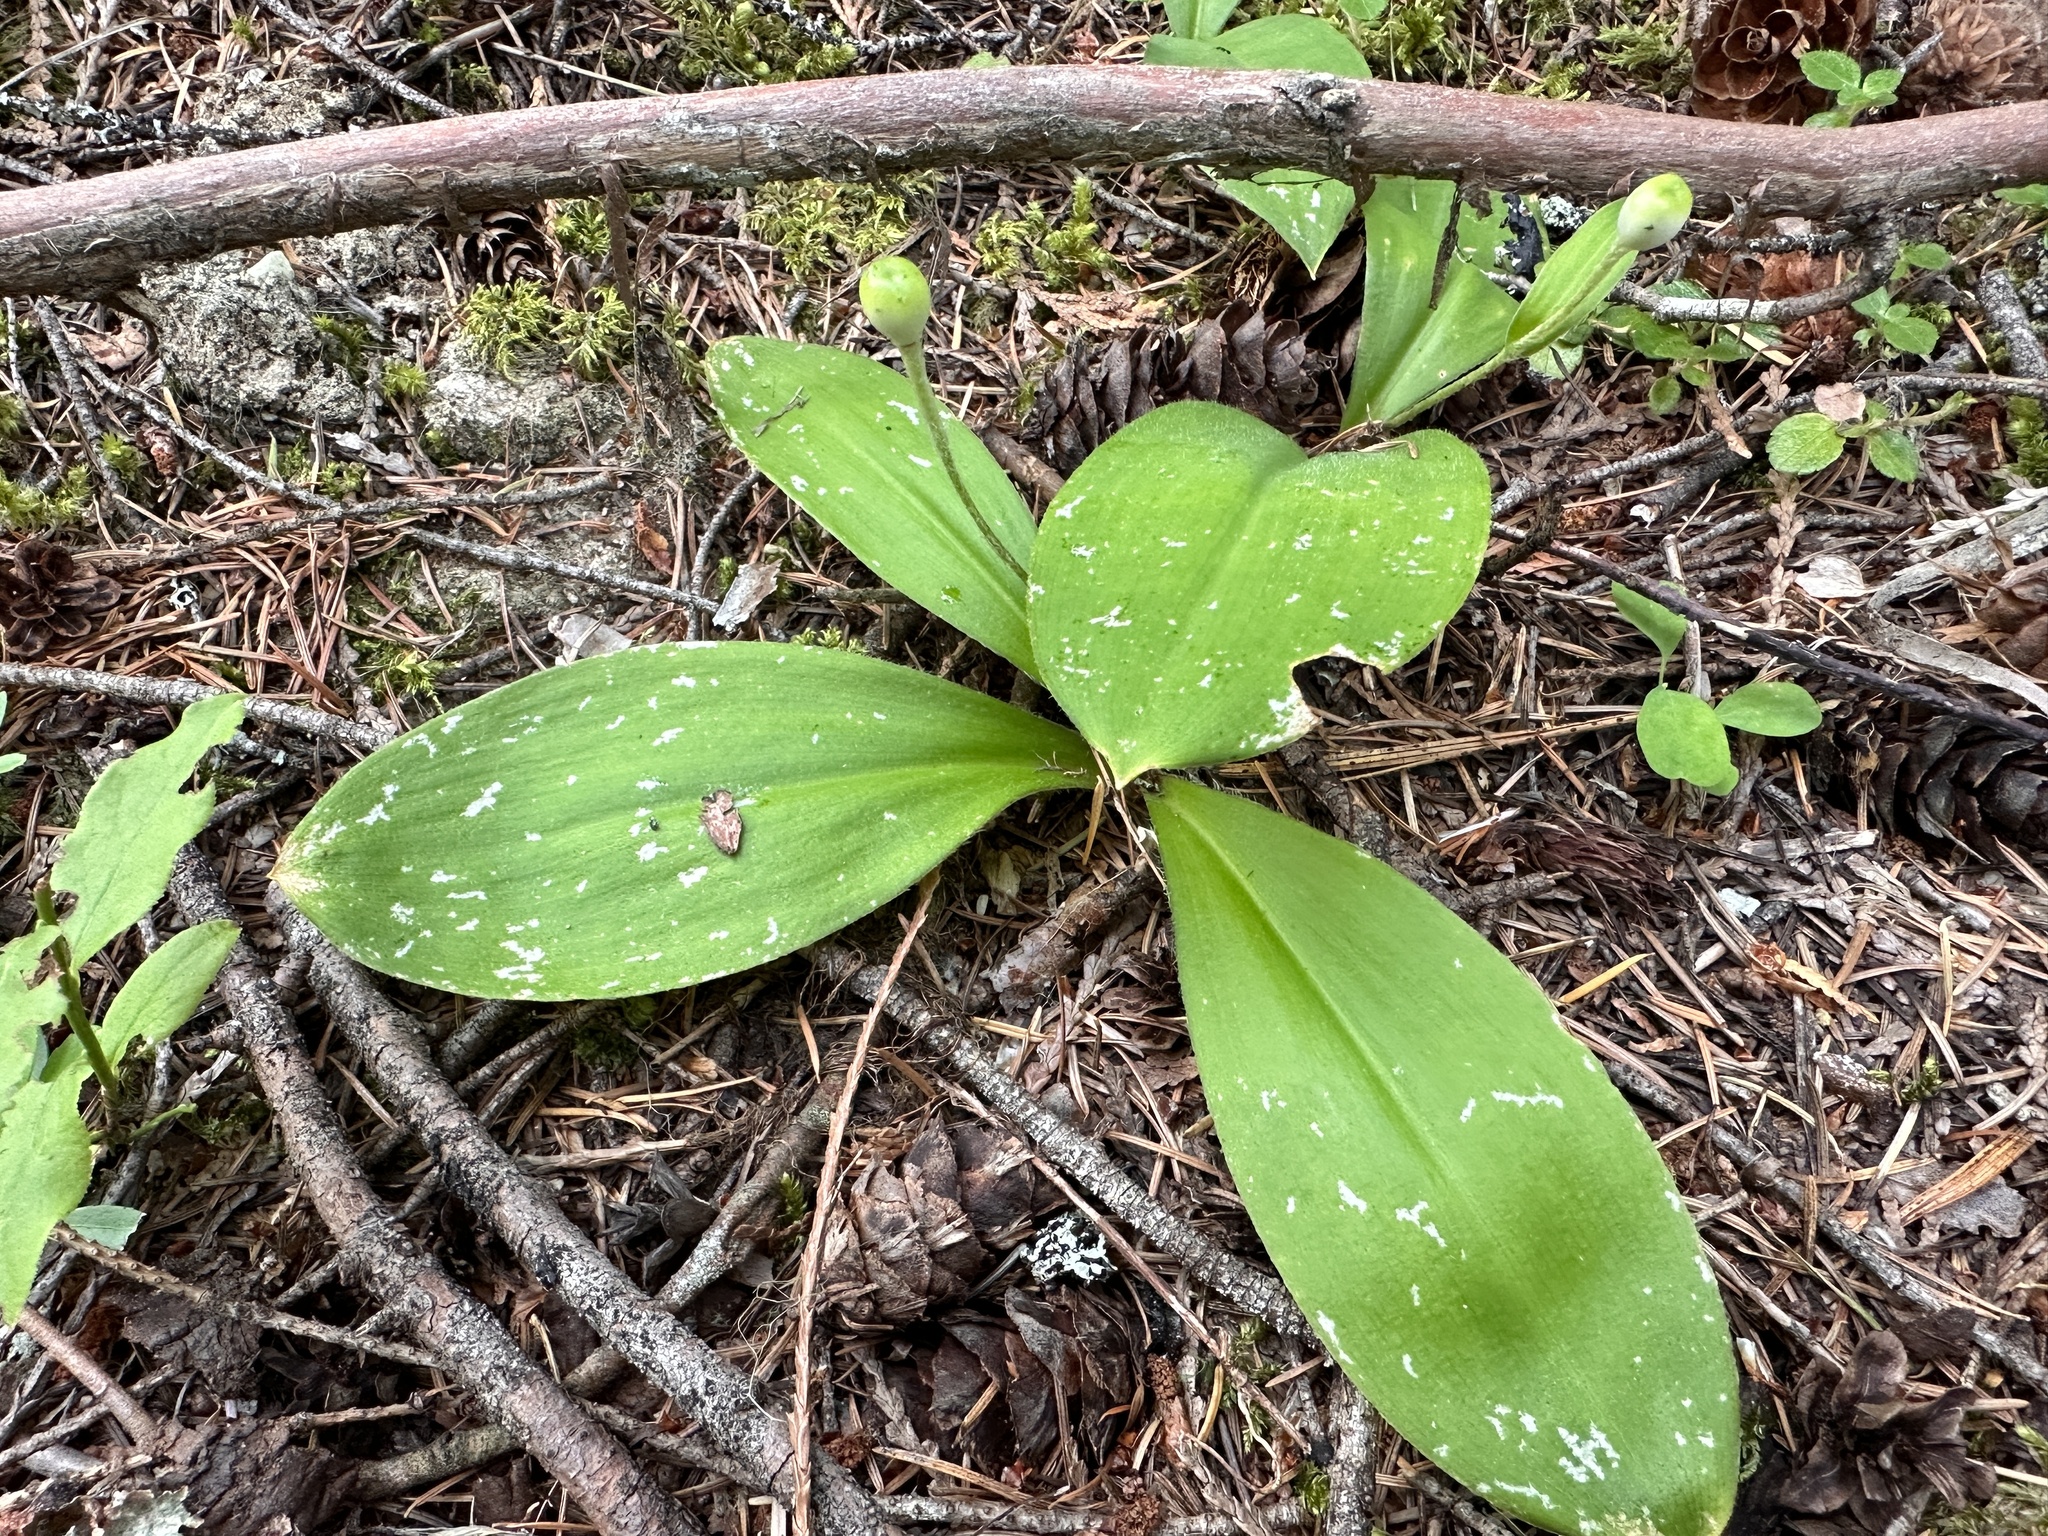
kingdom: Plantae
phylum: Tracheophyta
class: Liliopsida
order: Liliales
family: Liliaceae
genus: Clintonia
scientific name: Clintonia uniflora
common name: Queen's cup
